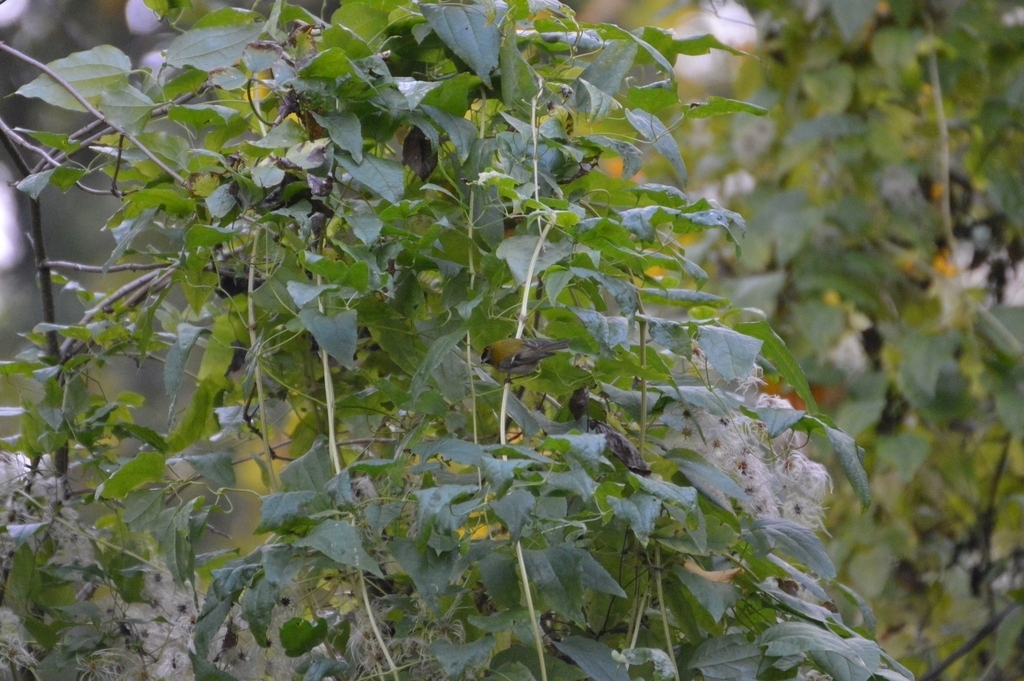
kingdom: Plantae
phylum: Tracheophyta
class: Magnoliopsida
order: Ranunculales
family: Ranunculaceae
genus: Clematis
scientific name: Clematis vitalba
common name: Evergreen clematis
